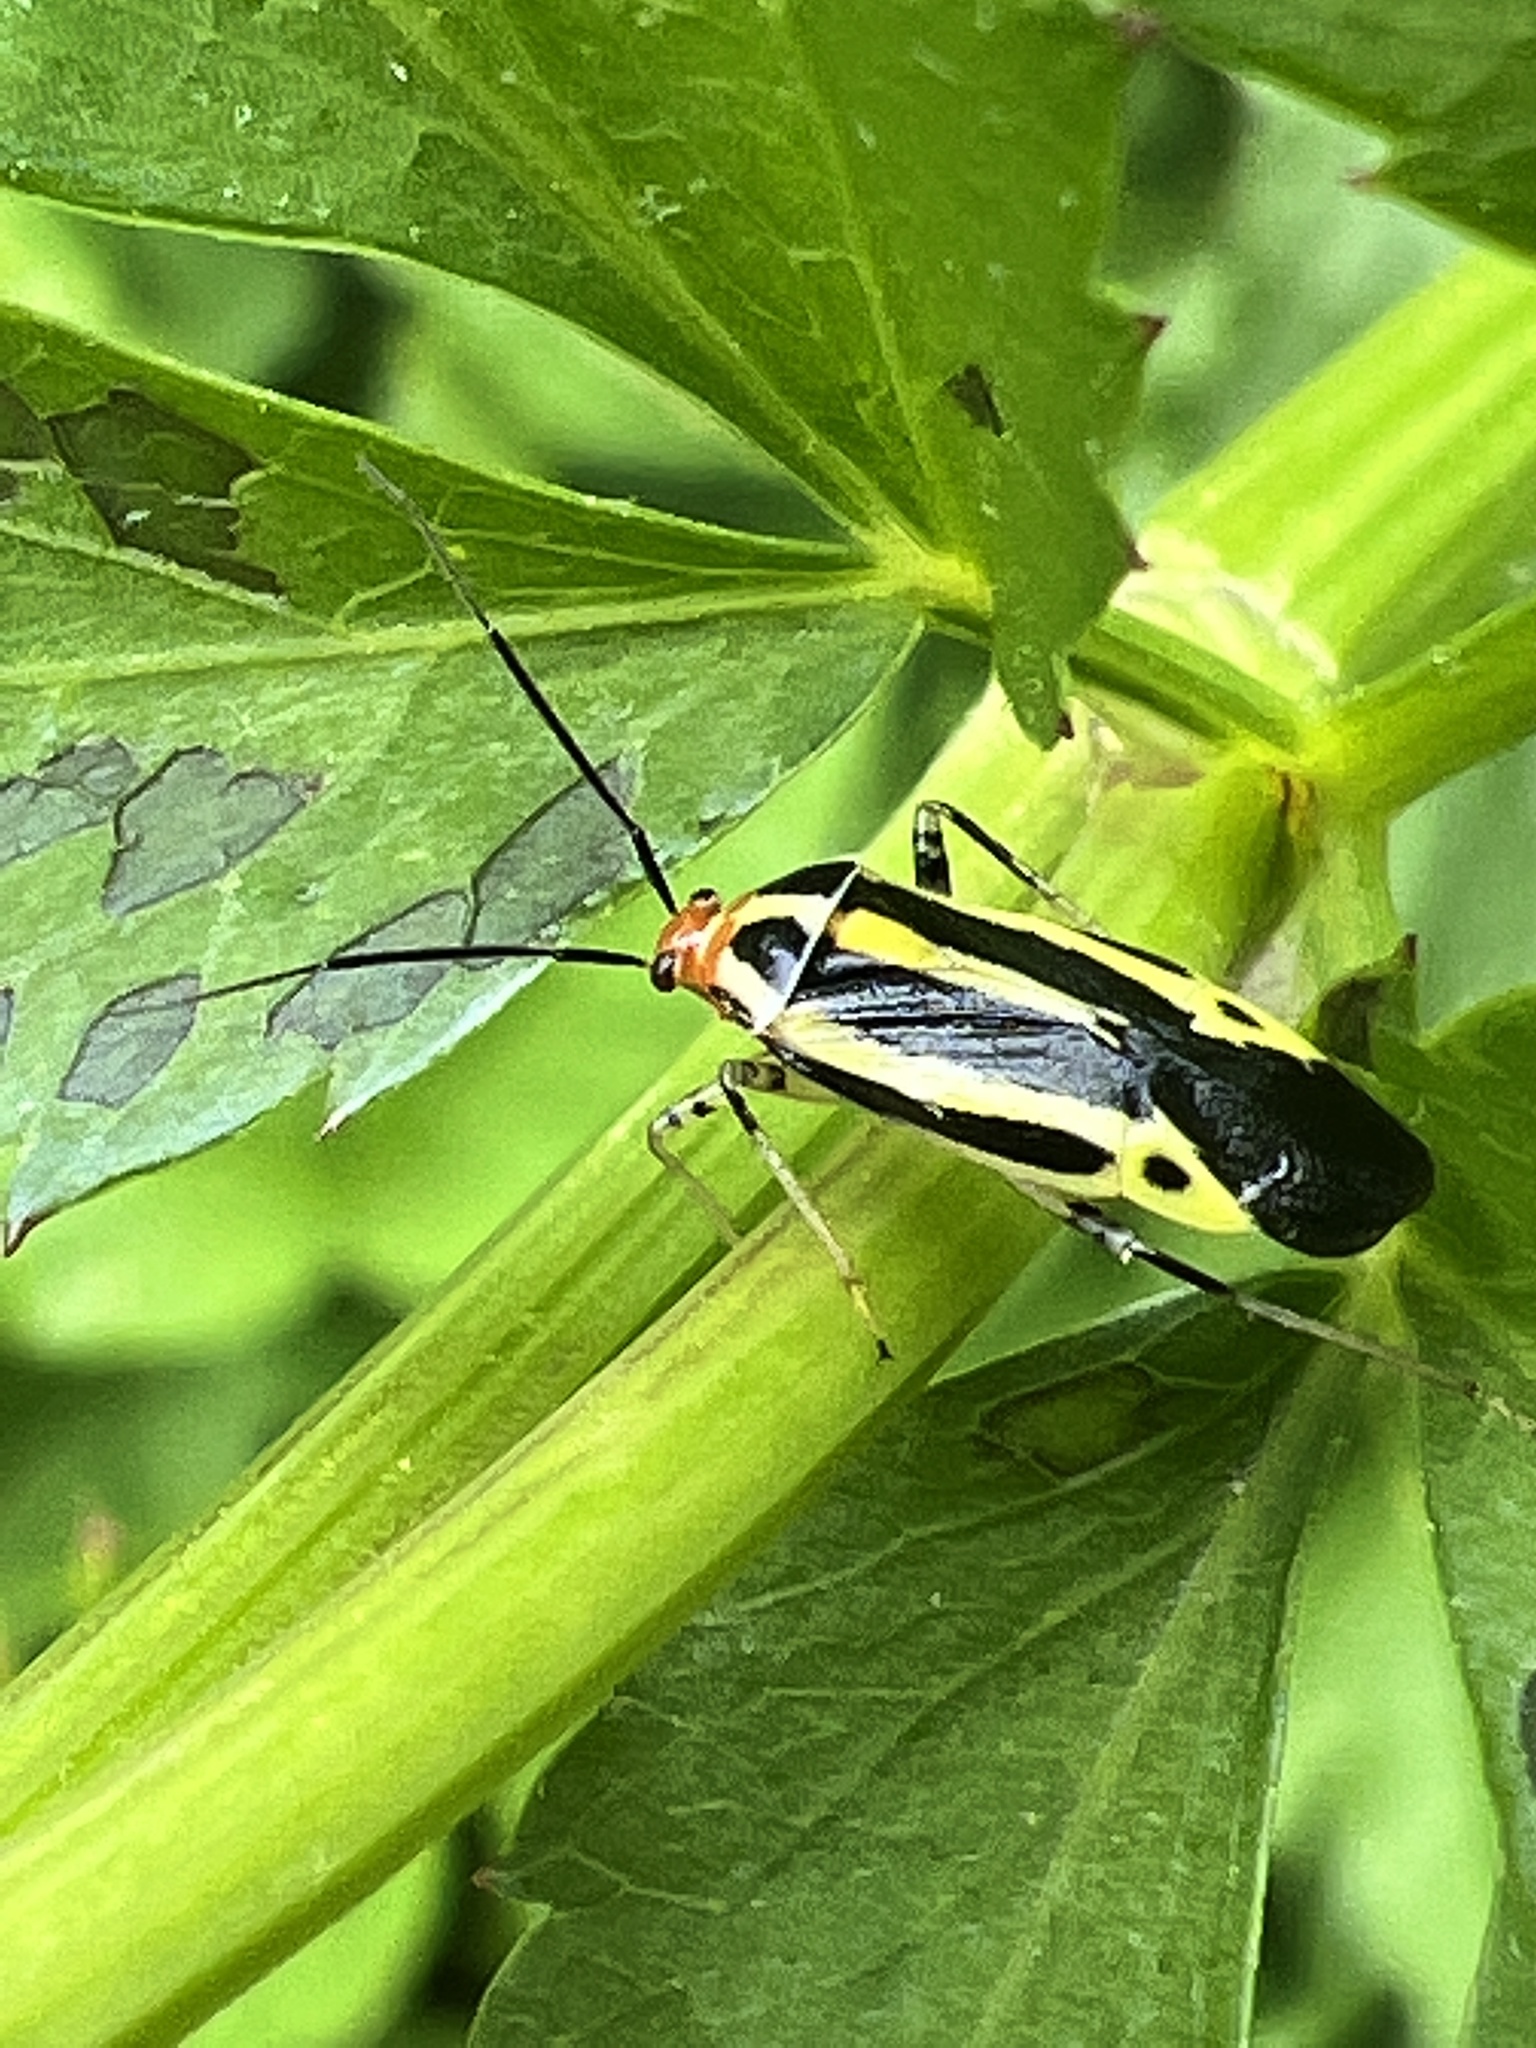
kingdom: Animalia
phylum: Arthropoda
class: Insecta
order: Hemiptera
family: Miridae
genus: Poecilocapsus
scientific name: Poecilocapsus lineatus
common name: Four-lined plant bug
